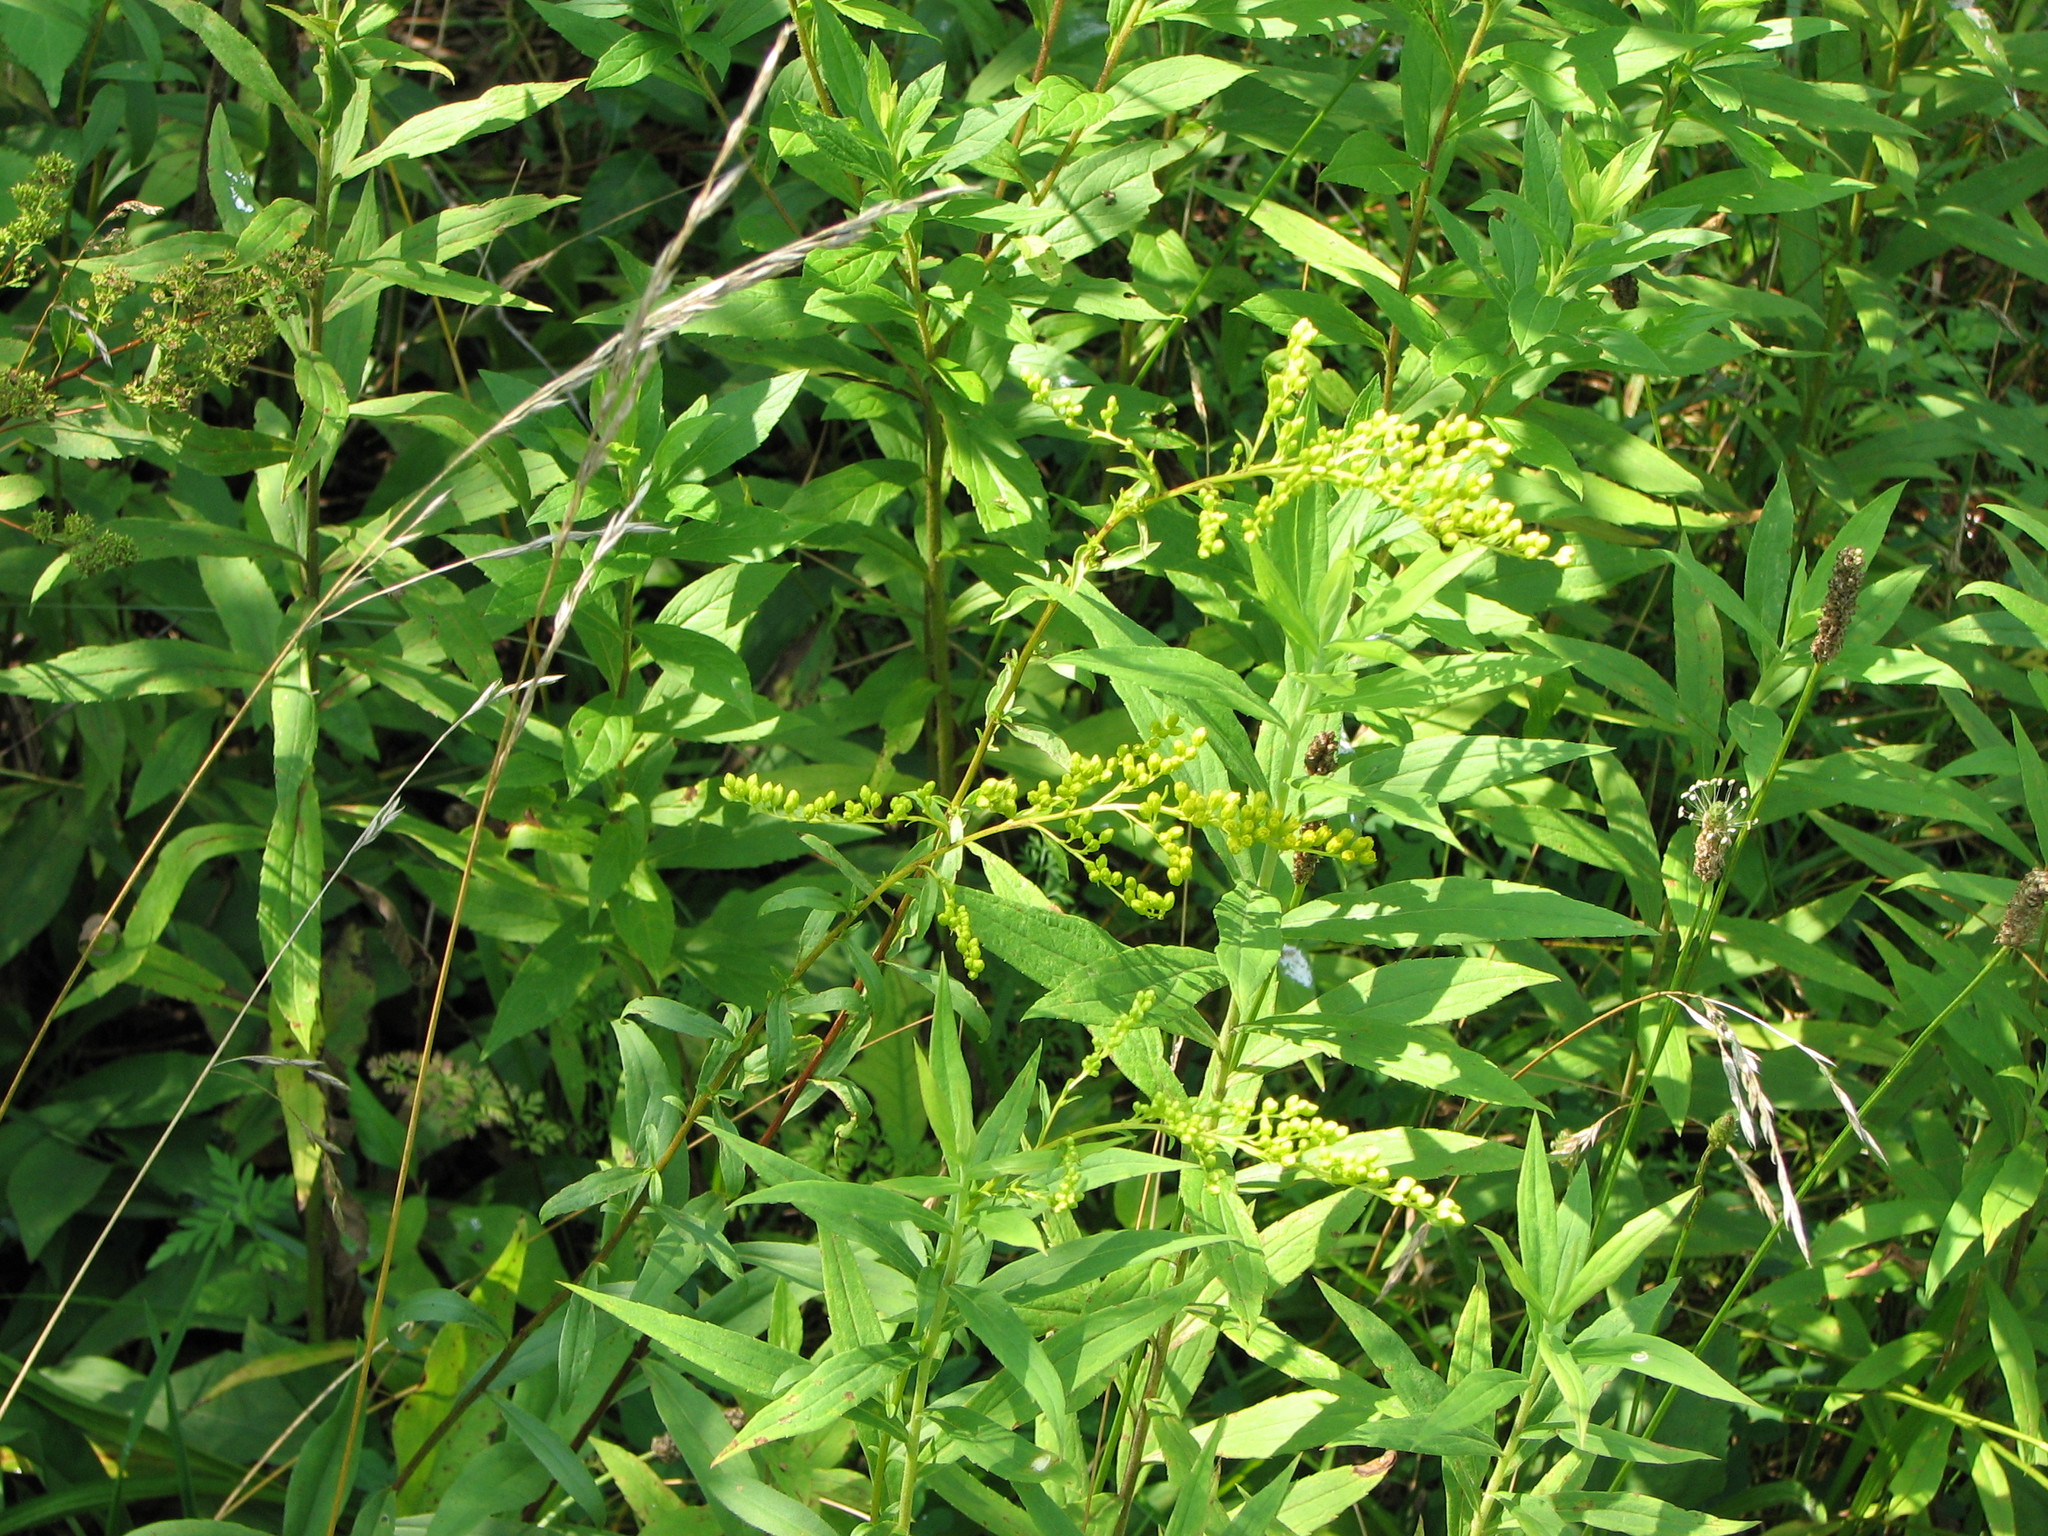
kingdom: Plantae
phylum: Tracheophyta
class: Magnoliopsida
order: Asterales
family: Asteraceae
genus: Solidago
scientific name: Solidago juncea
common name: Early goldenrod
